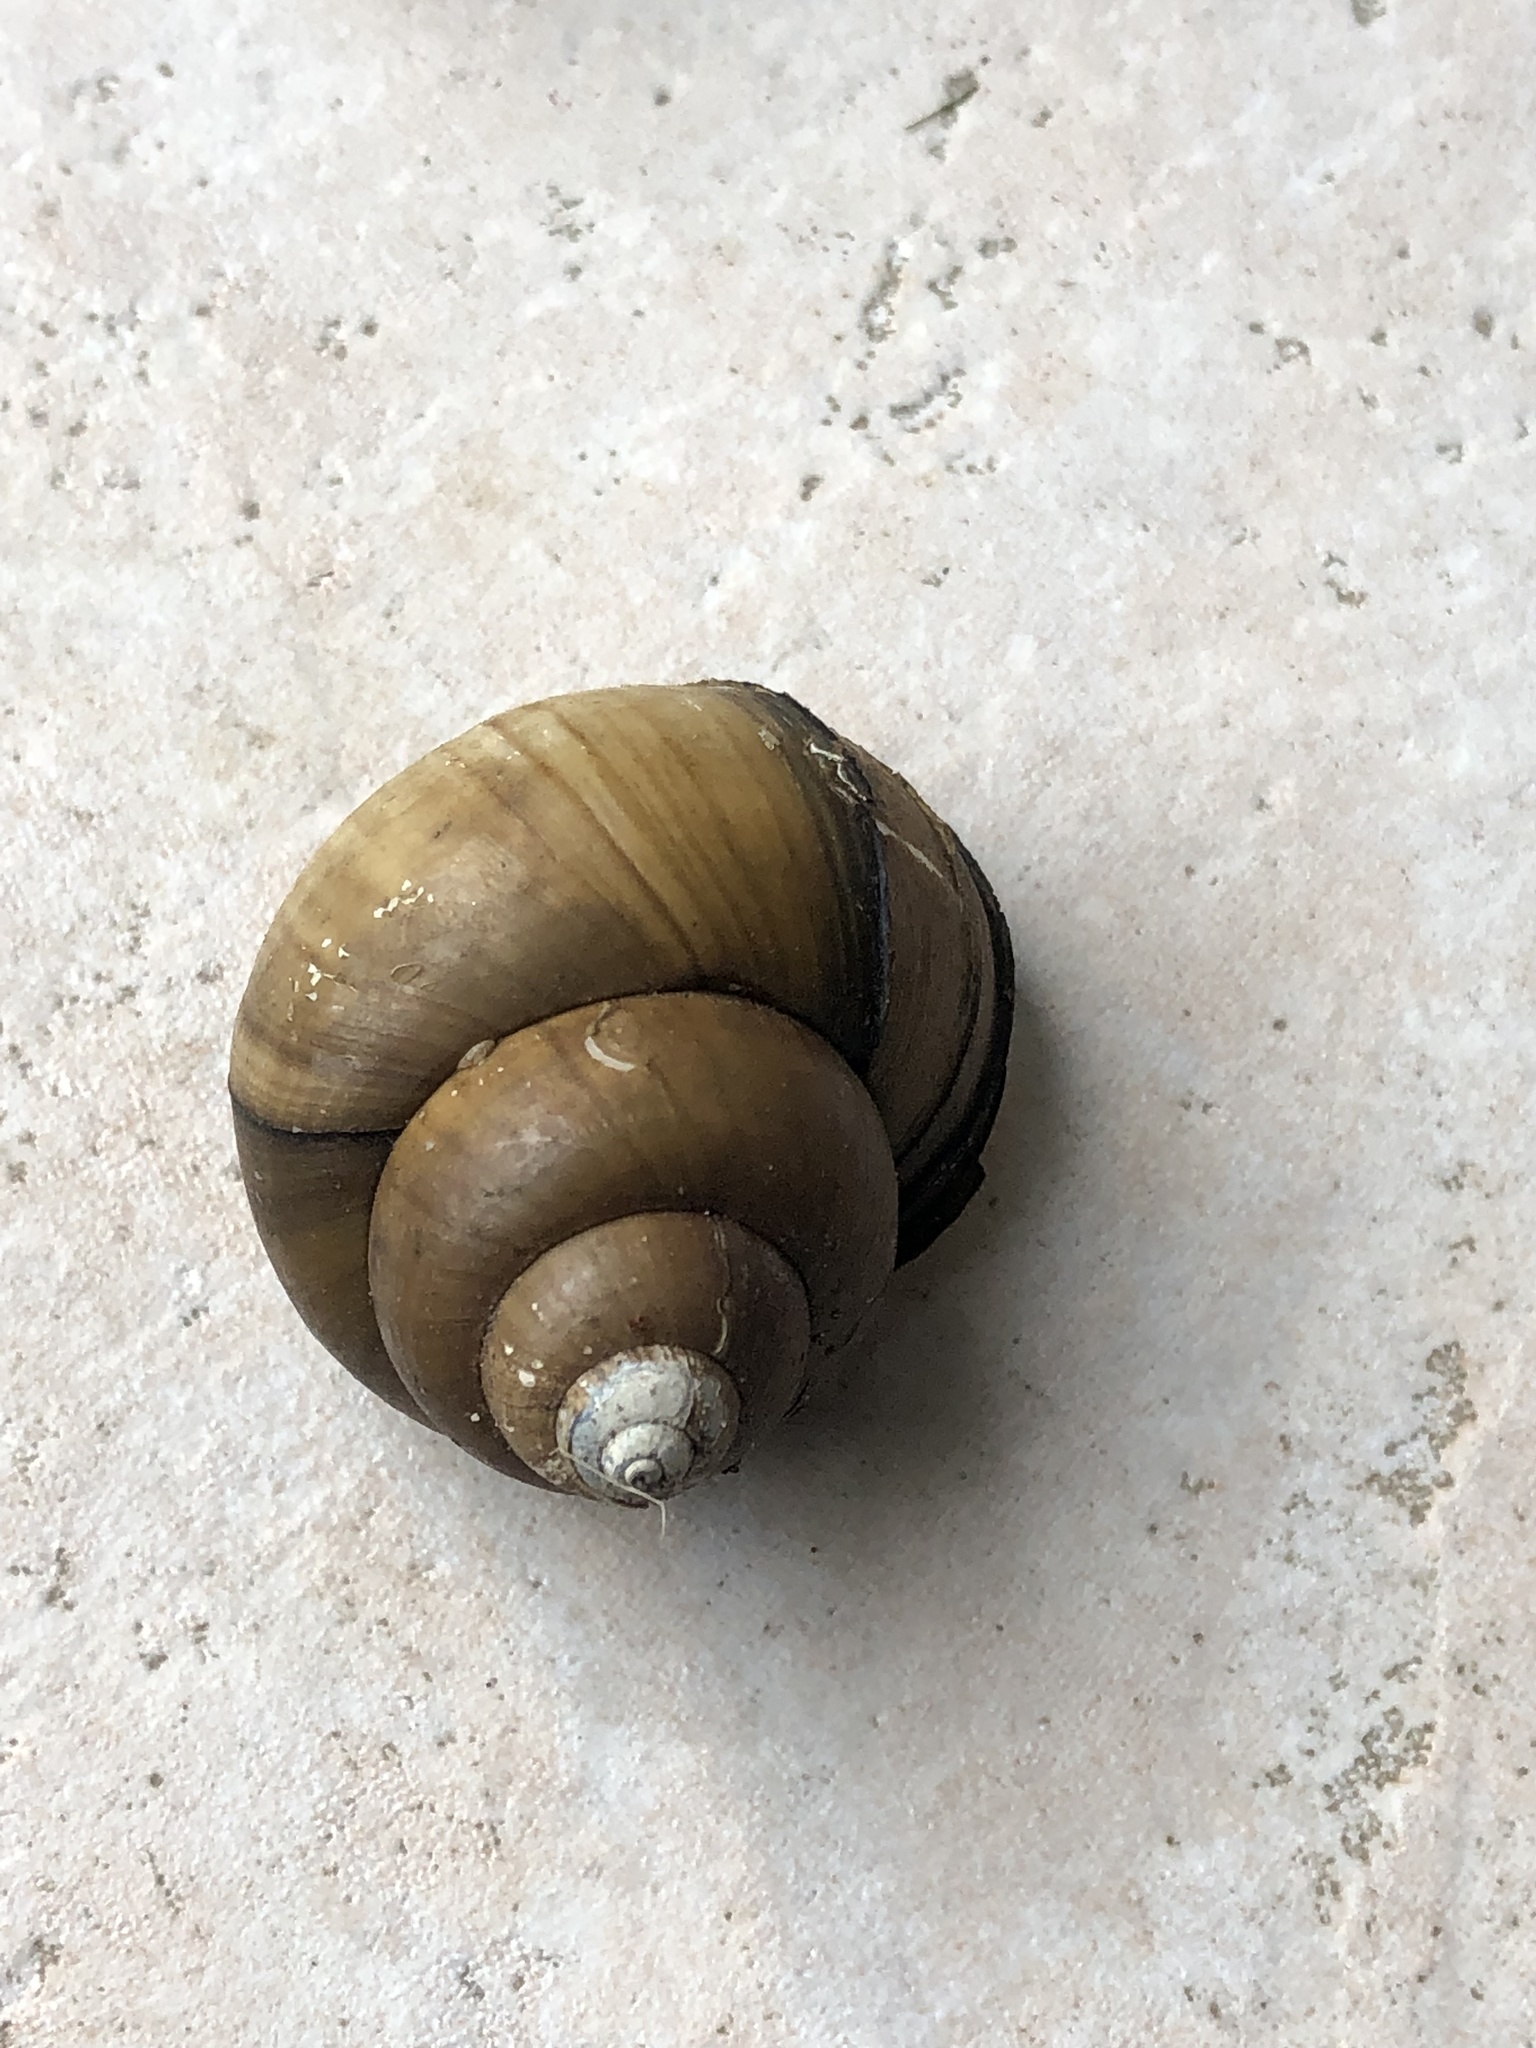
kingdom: Animalia
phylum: Mollusca
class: Gastropoda
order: Architaenioglossa
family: Viviparidae
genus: Cipangopaludina
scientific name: Cipangopaludina chinensis
